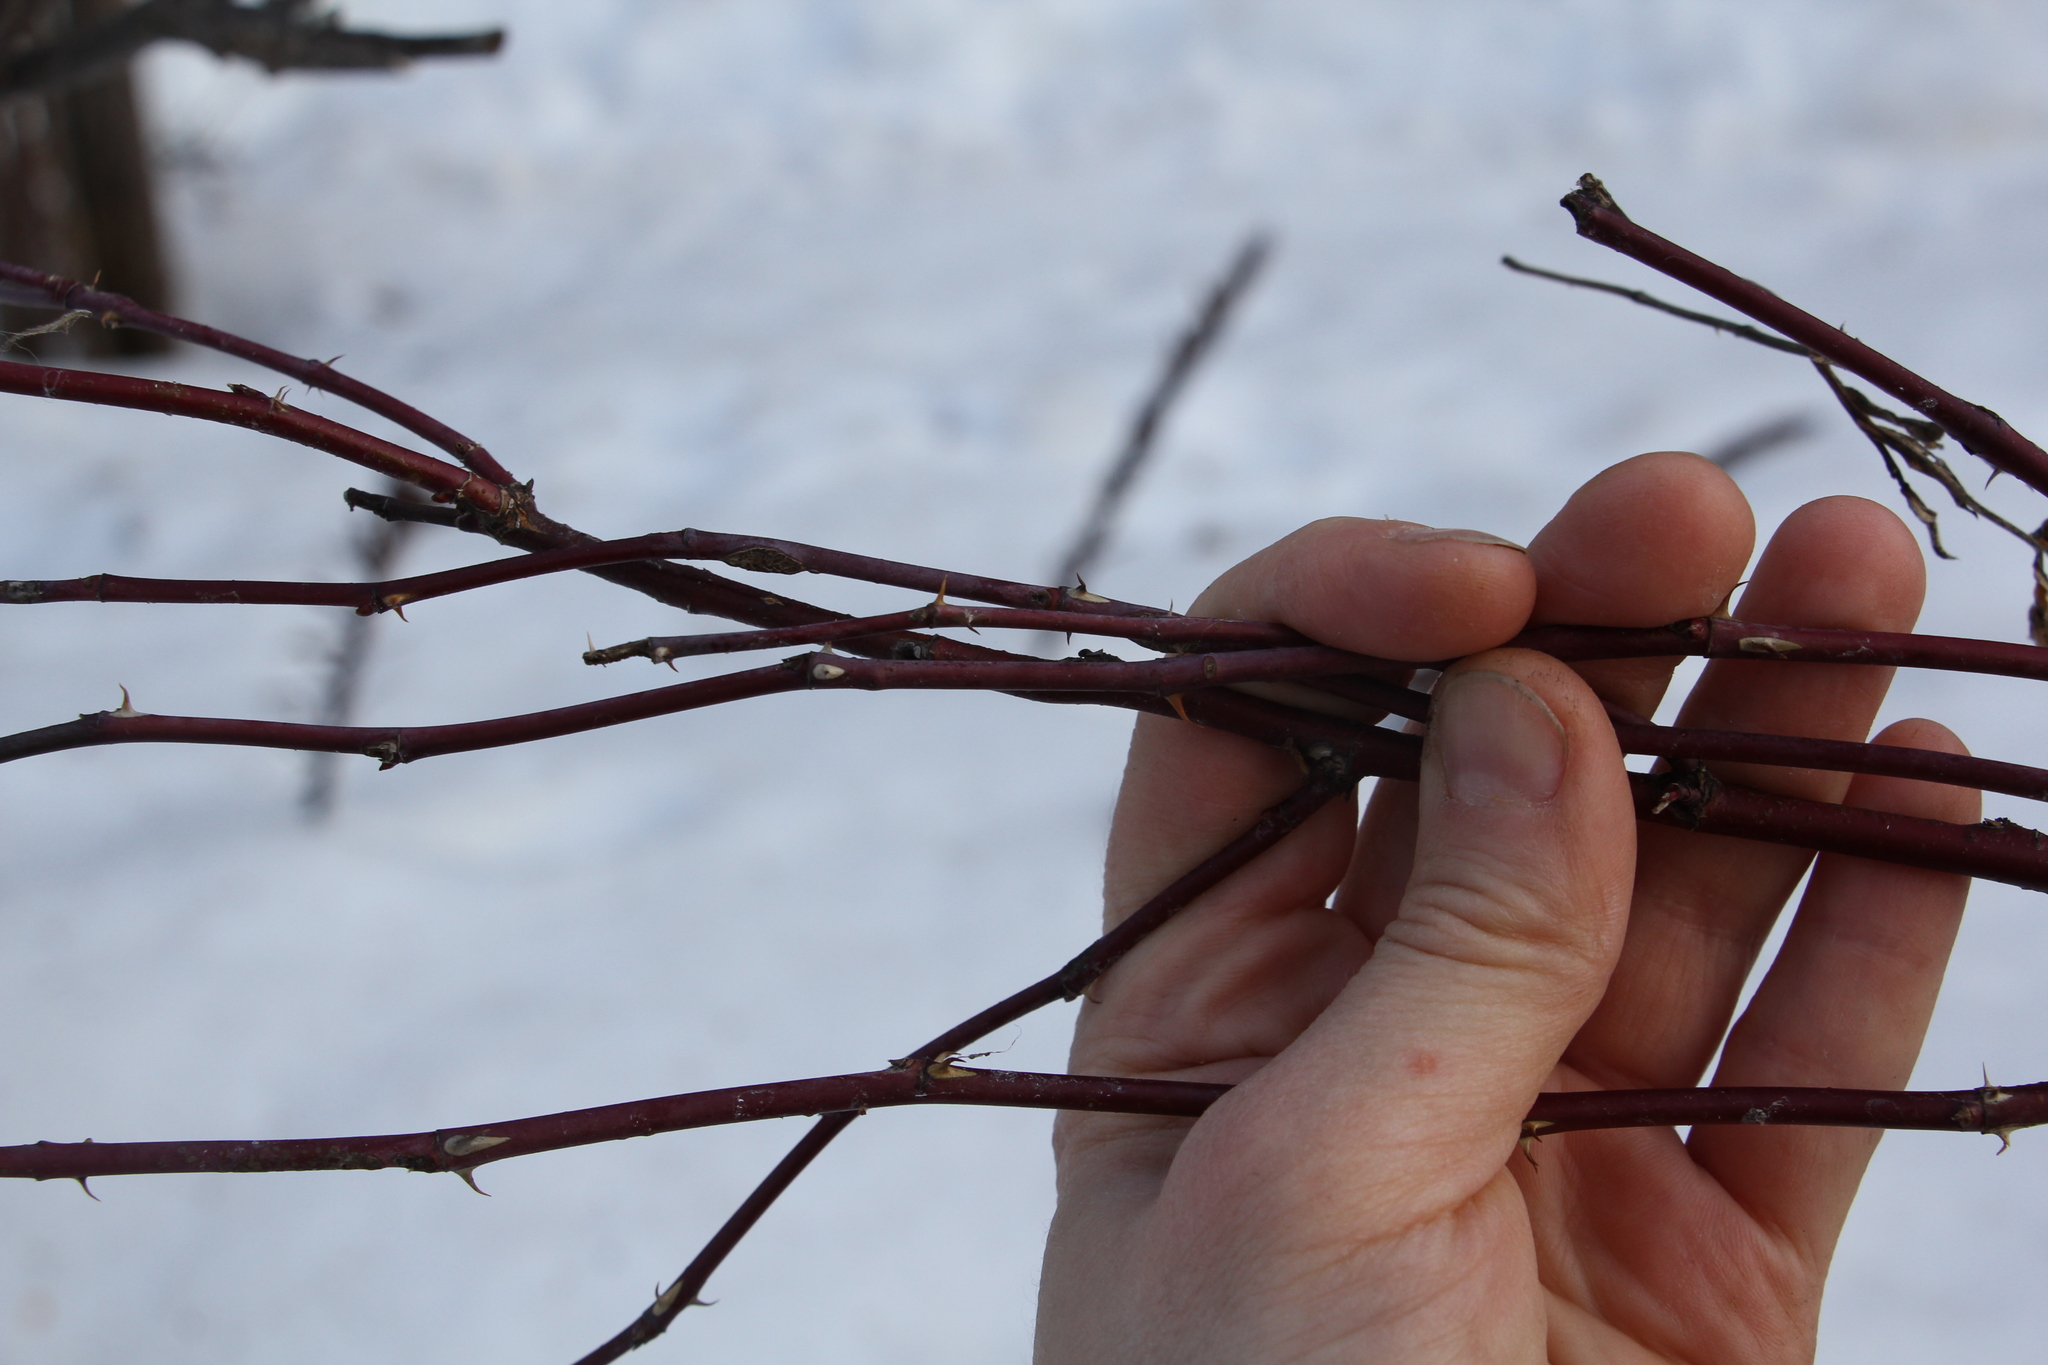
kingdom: Plantae
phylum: Tracheophyta
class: Magnoliopsida
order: Rosales
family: Rosaceae
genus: Rosa
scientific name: Rosa majalis
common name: Cinnamon rose
